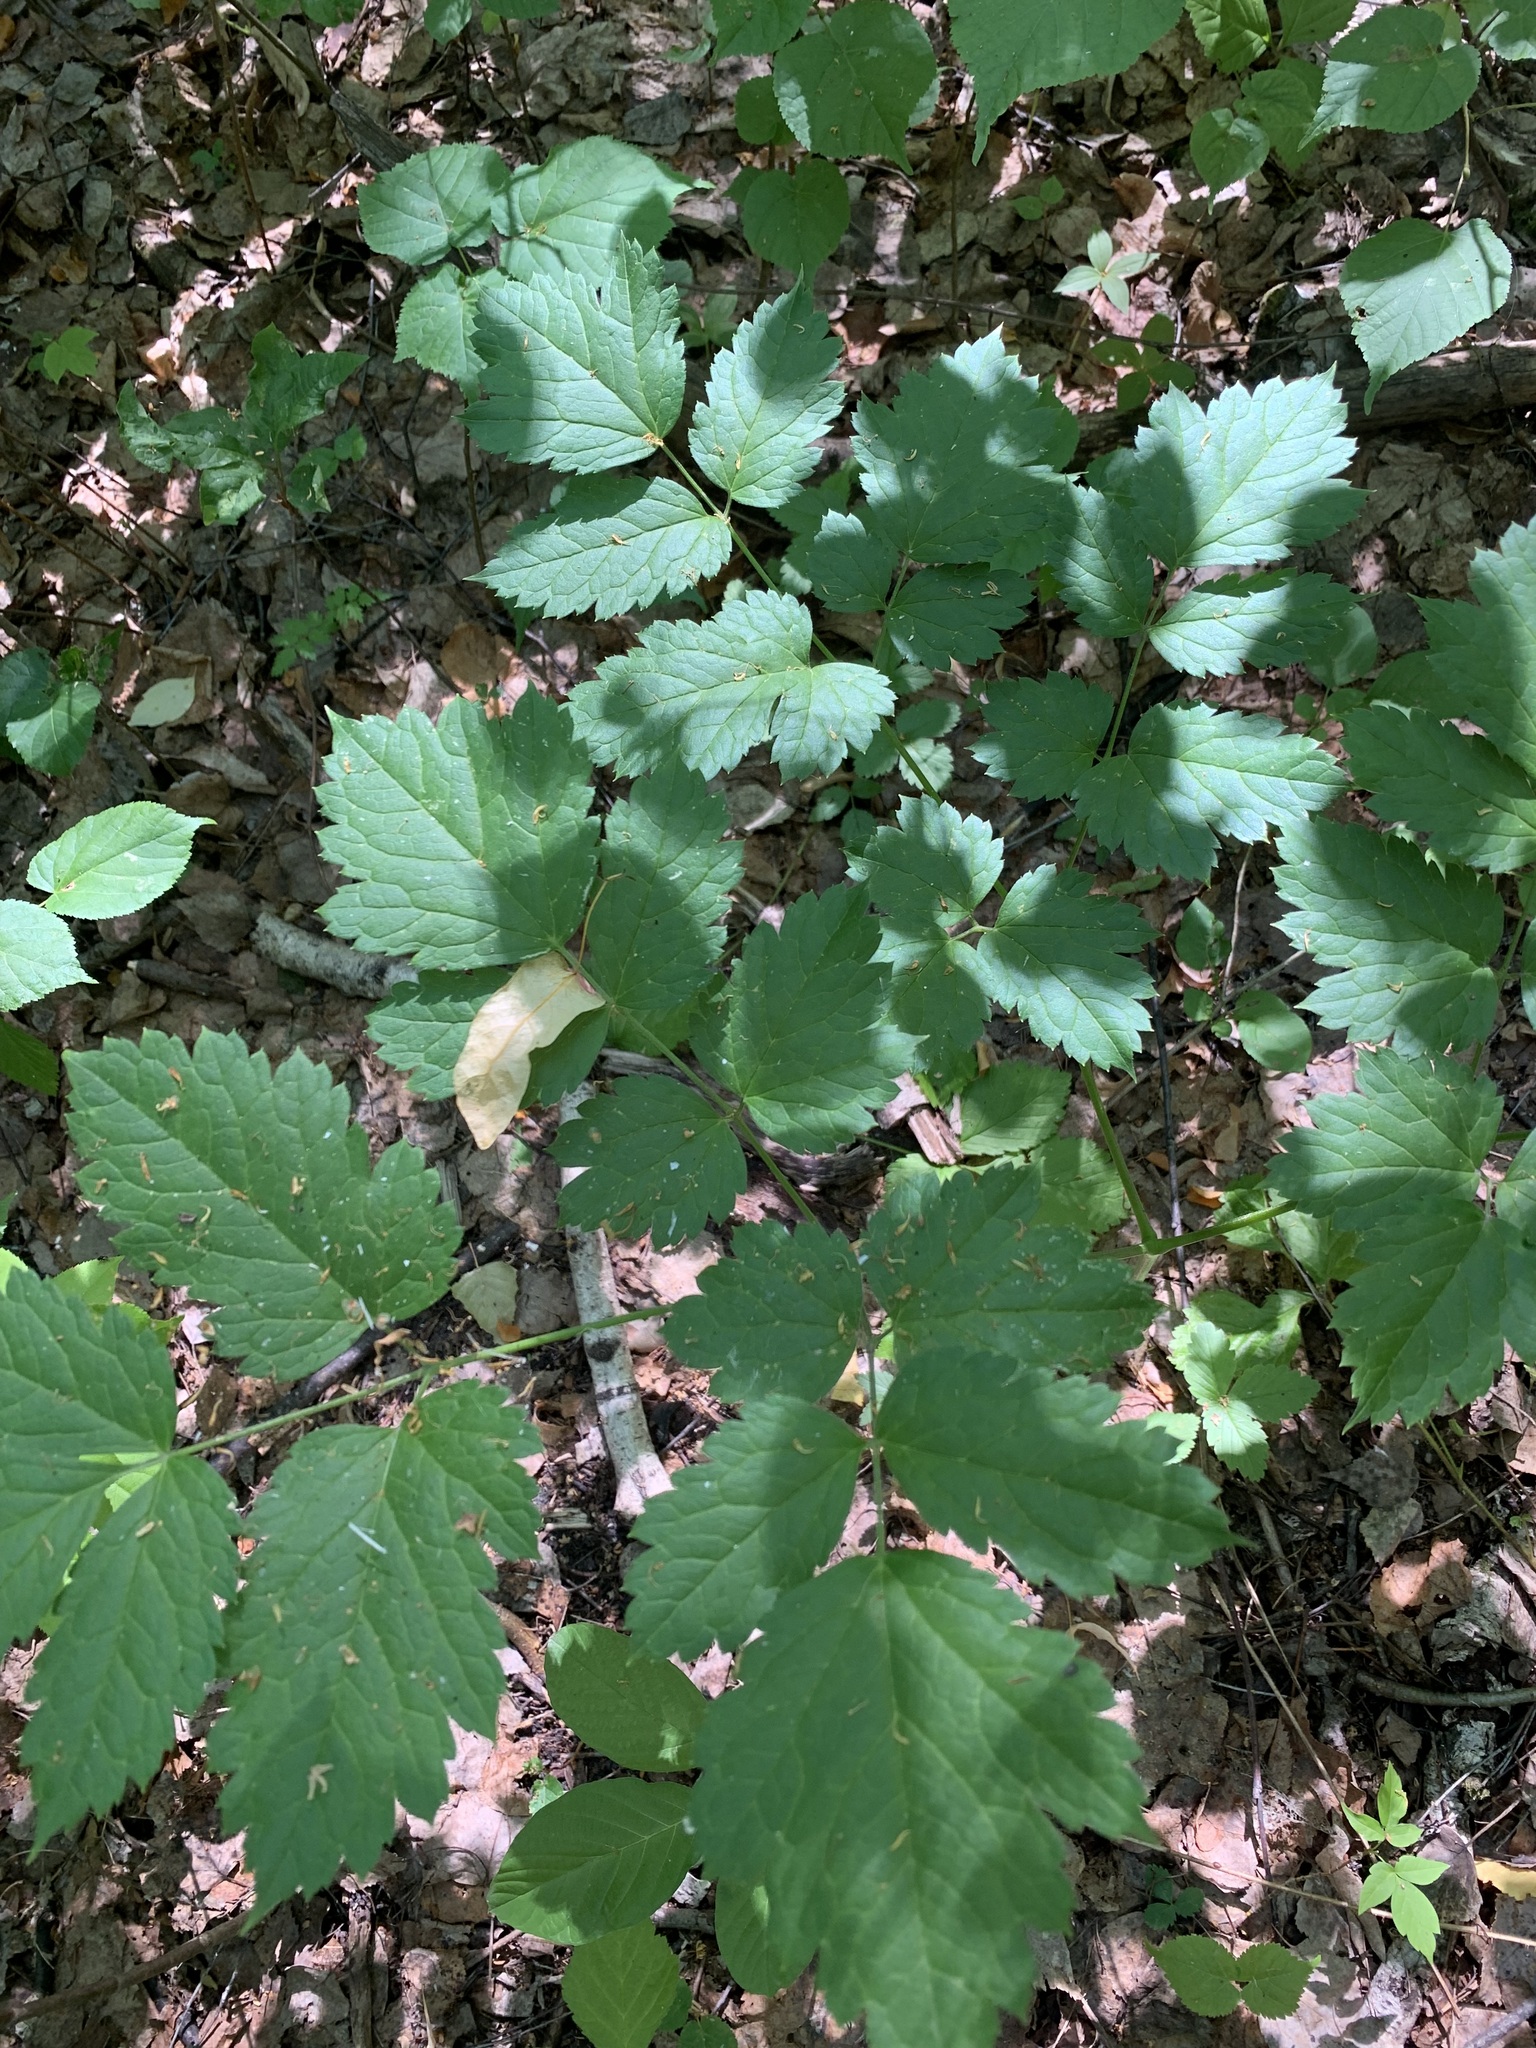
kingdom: Plantae
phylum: Tracheophyta
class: Magnoliopsida
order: Ranunculales
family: Ranunculaceae
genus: Actaea
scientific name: Actaea erythrocarpa
